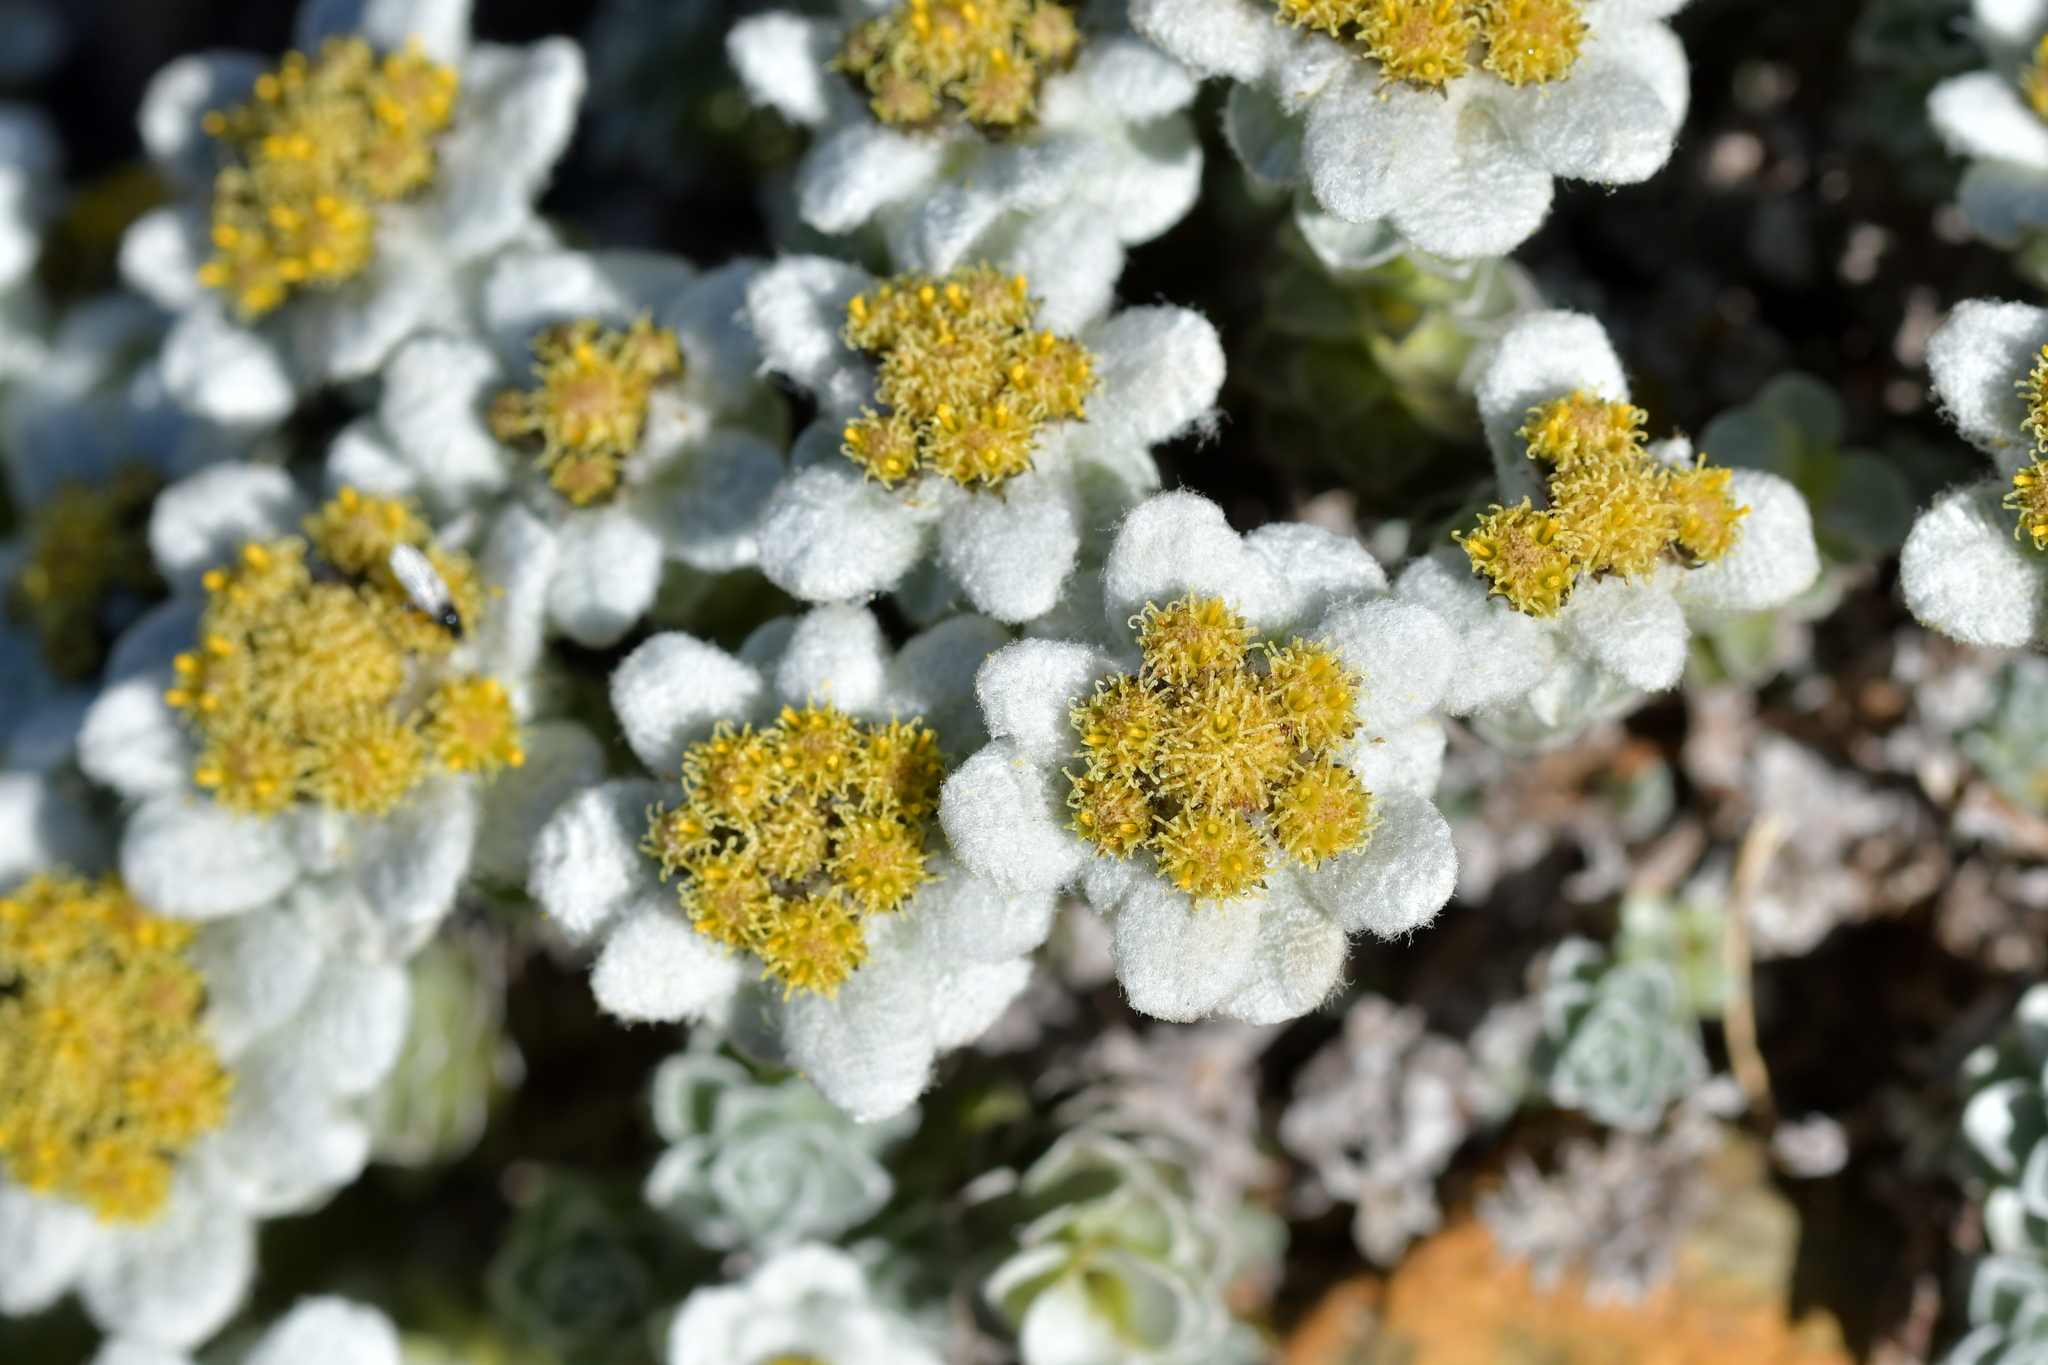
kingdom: Plantae
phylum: Tracheophyta
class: Magnoliopsida
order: Asterales
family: Asteraceae
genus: Leucogenes
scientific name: Leucogenes grandiceps
